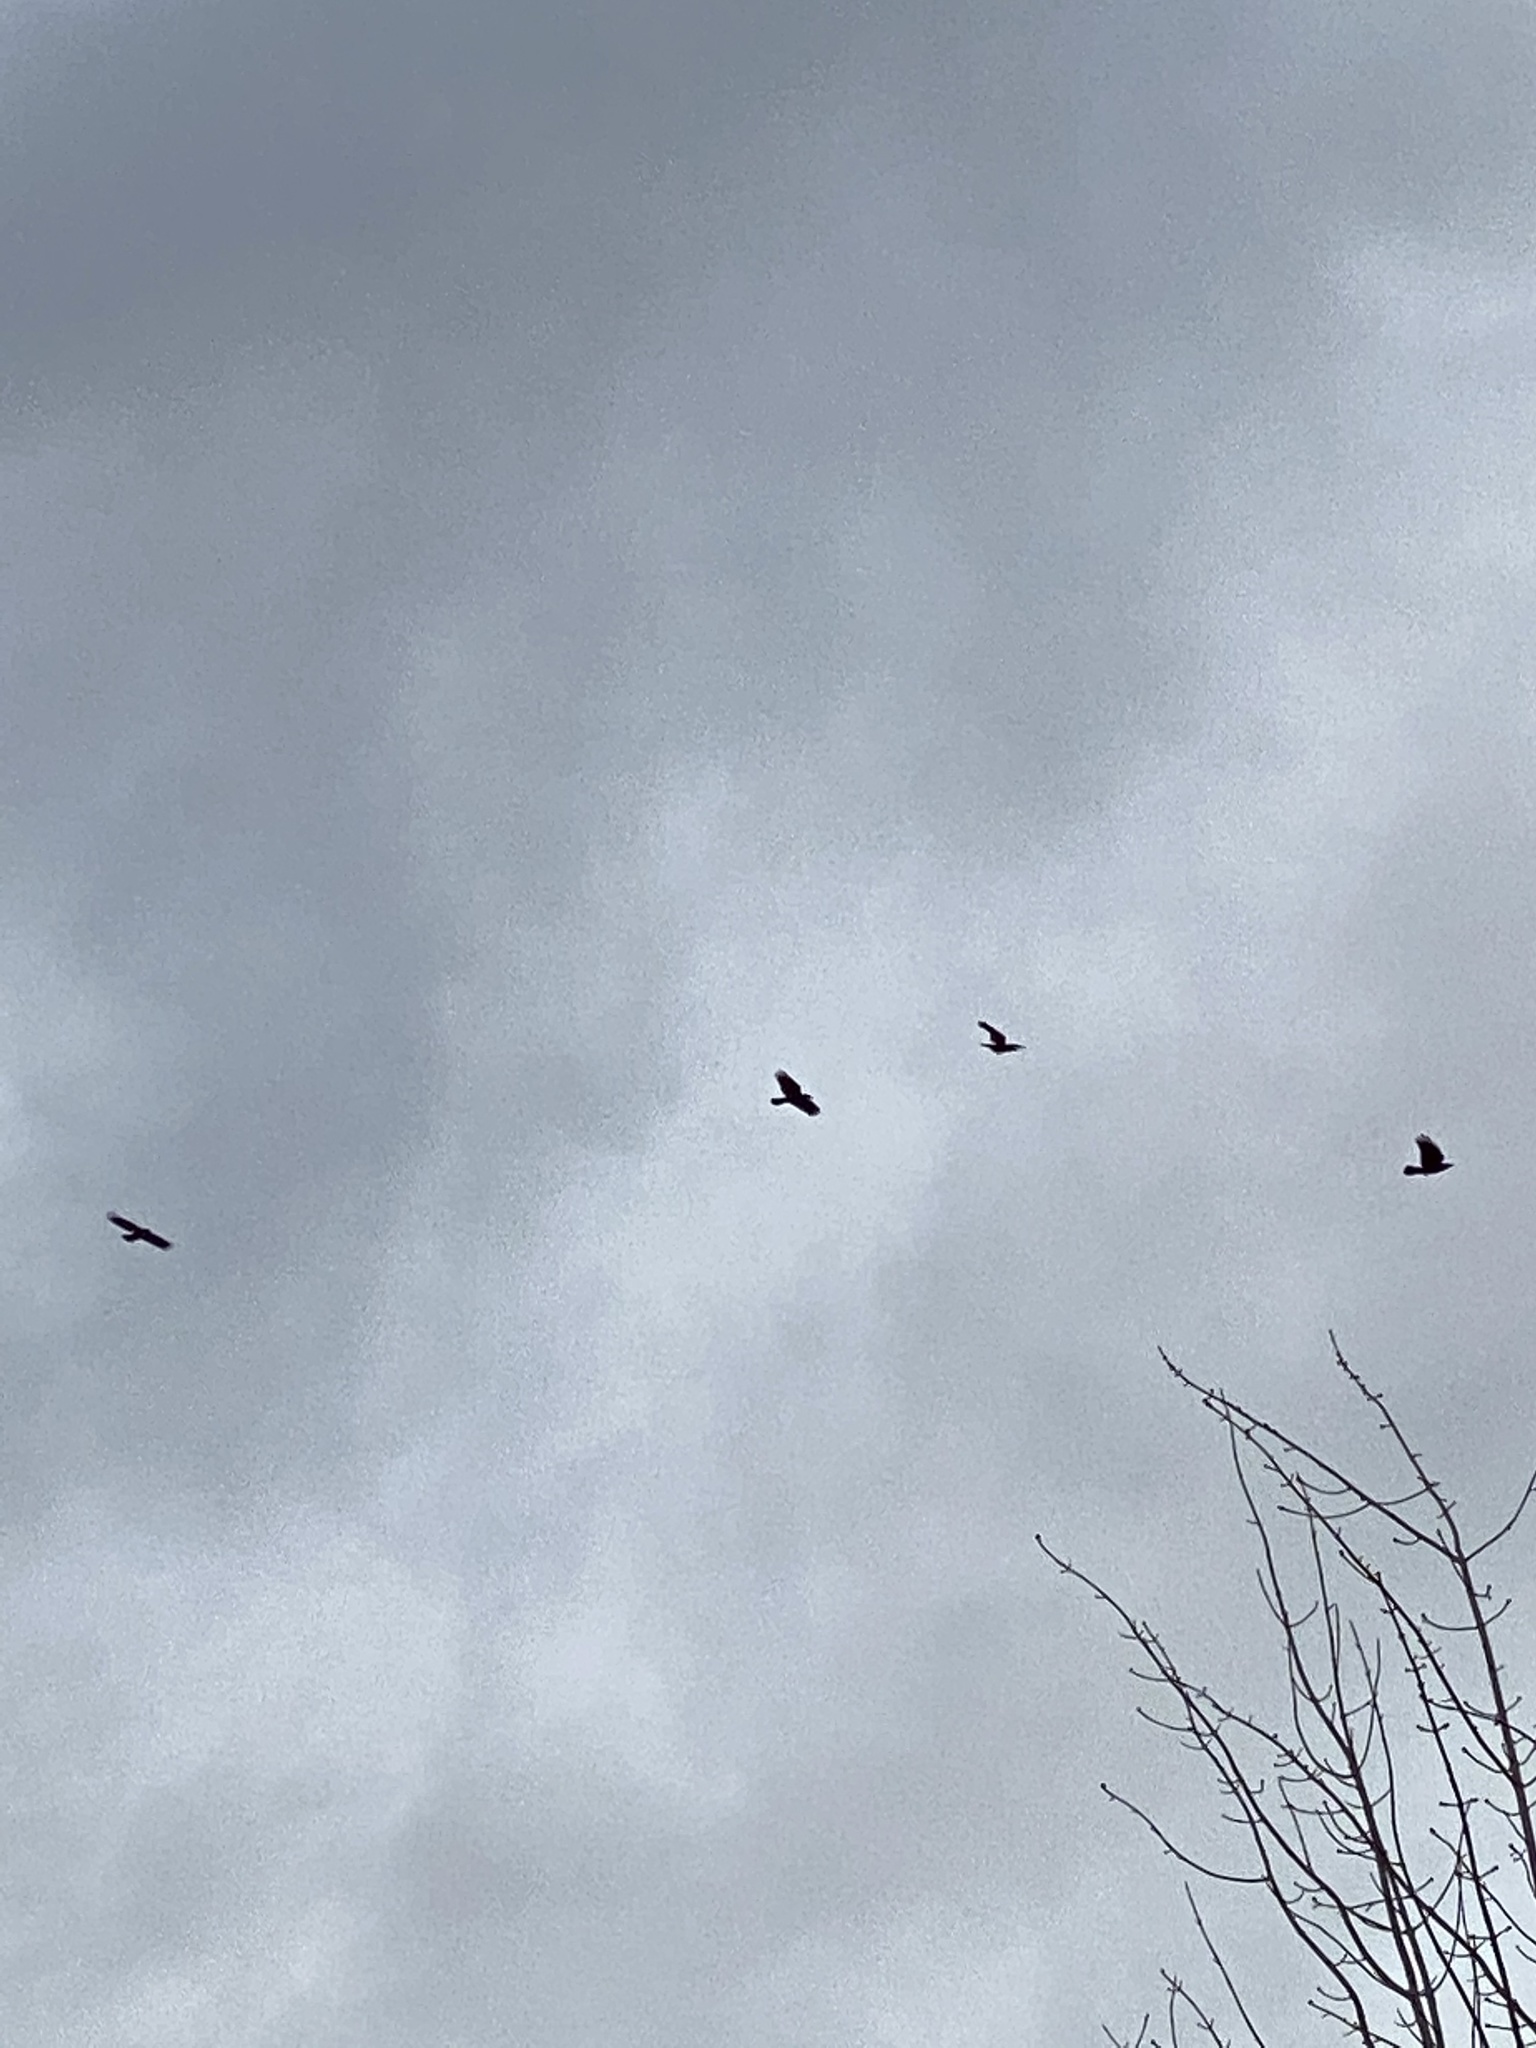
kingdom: Animalia
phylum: Chordata
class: Aves
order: Passeriformes
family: Corvidae
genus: Corvus
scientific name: Corvus brachyrhynchos
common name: American crow
